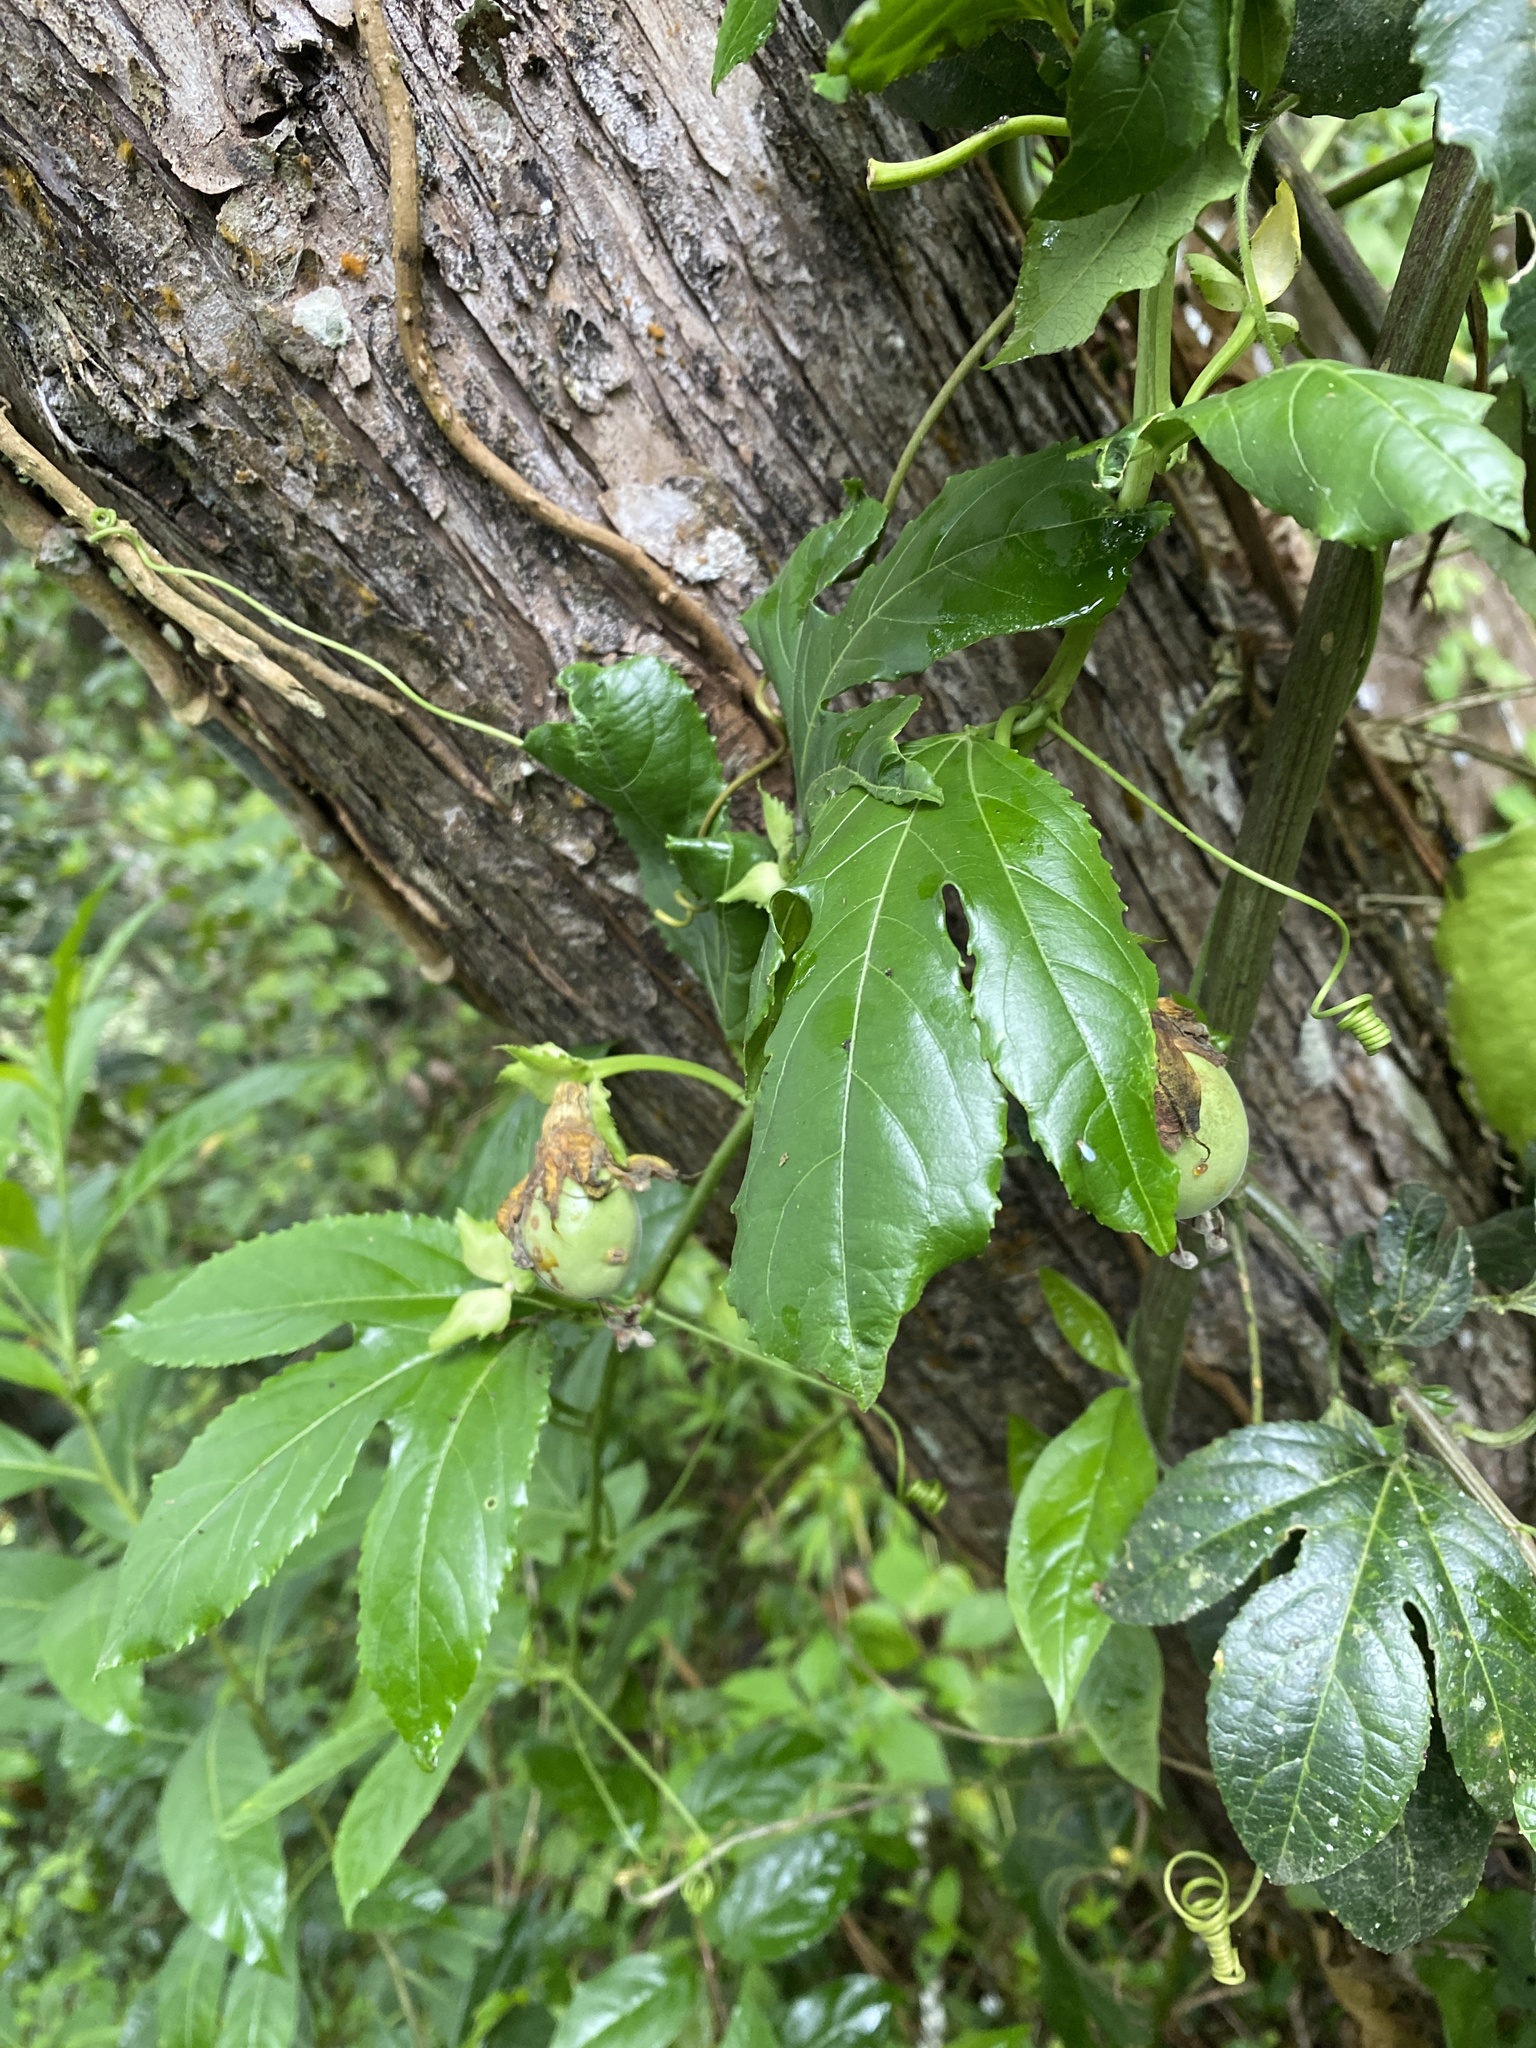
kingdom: Plantae
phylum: Tracheophyta
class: Magnoliopsida
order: Malpighiales
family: Passifloraceae
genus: Passiflora
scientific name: Passiflora edulis
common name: Purple granadilla
